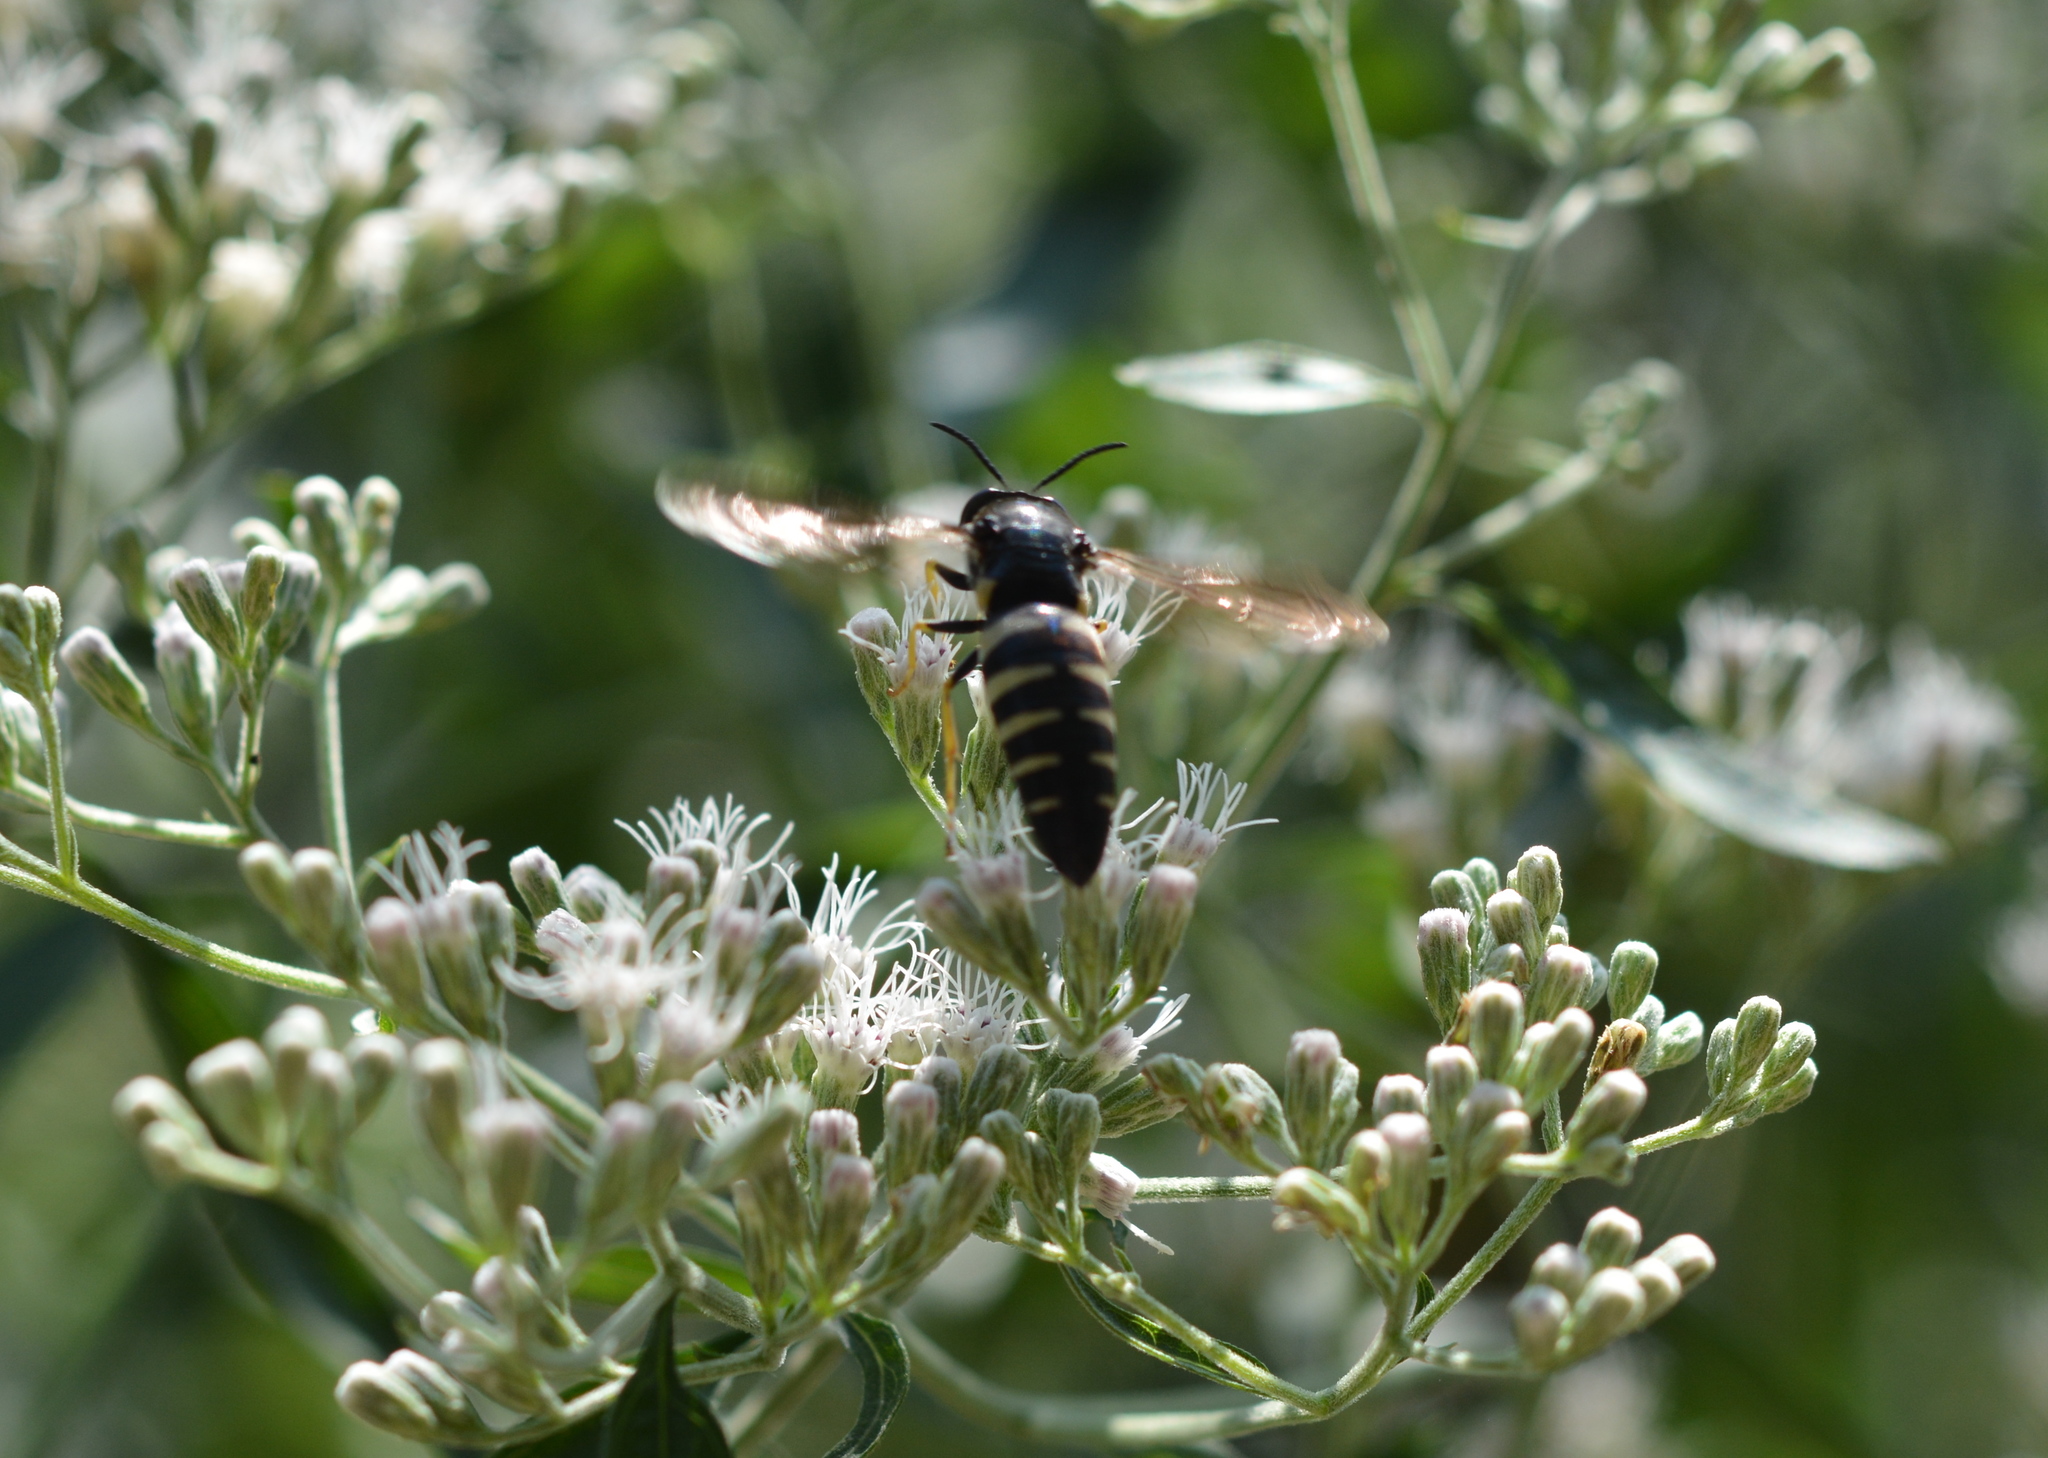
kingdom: Animalia
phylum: Arthropoda
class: Insecta
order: Hymenoptera
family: Crabronidae
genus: Bicyrtes
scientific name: Bicyrtes quadrifasciatus
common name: Four-banded stink bug hunter wasp
